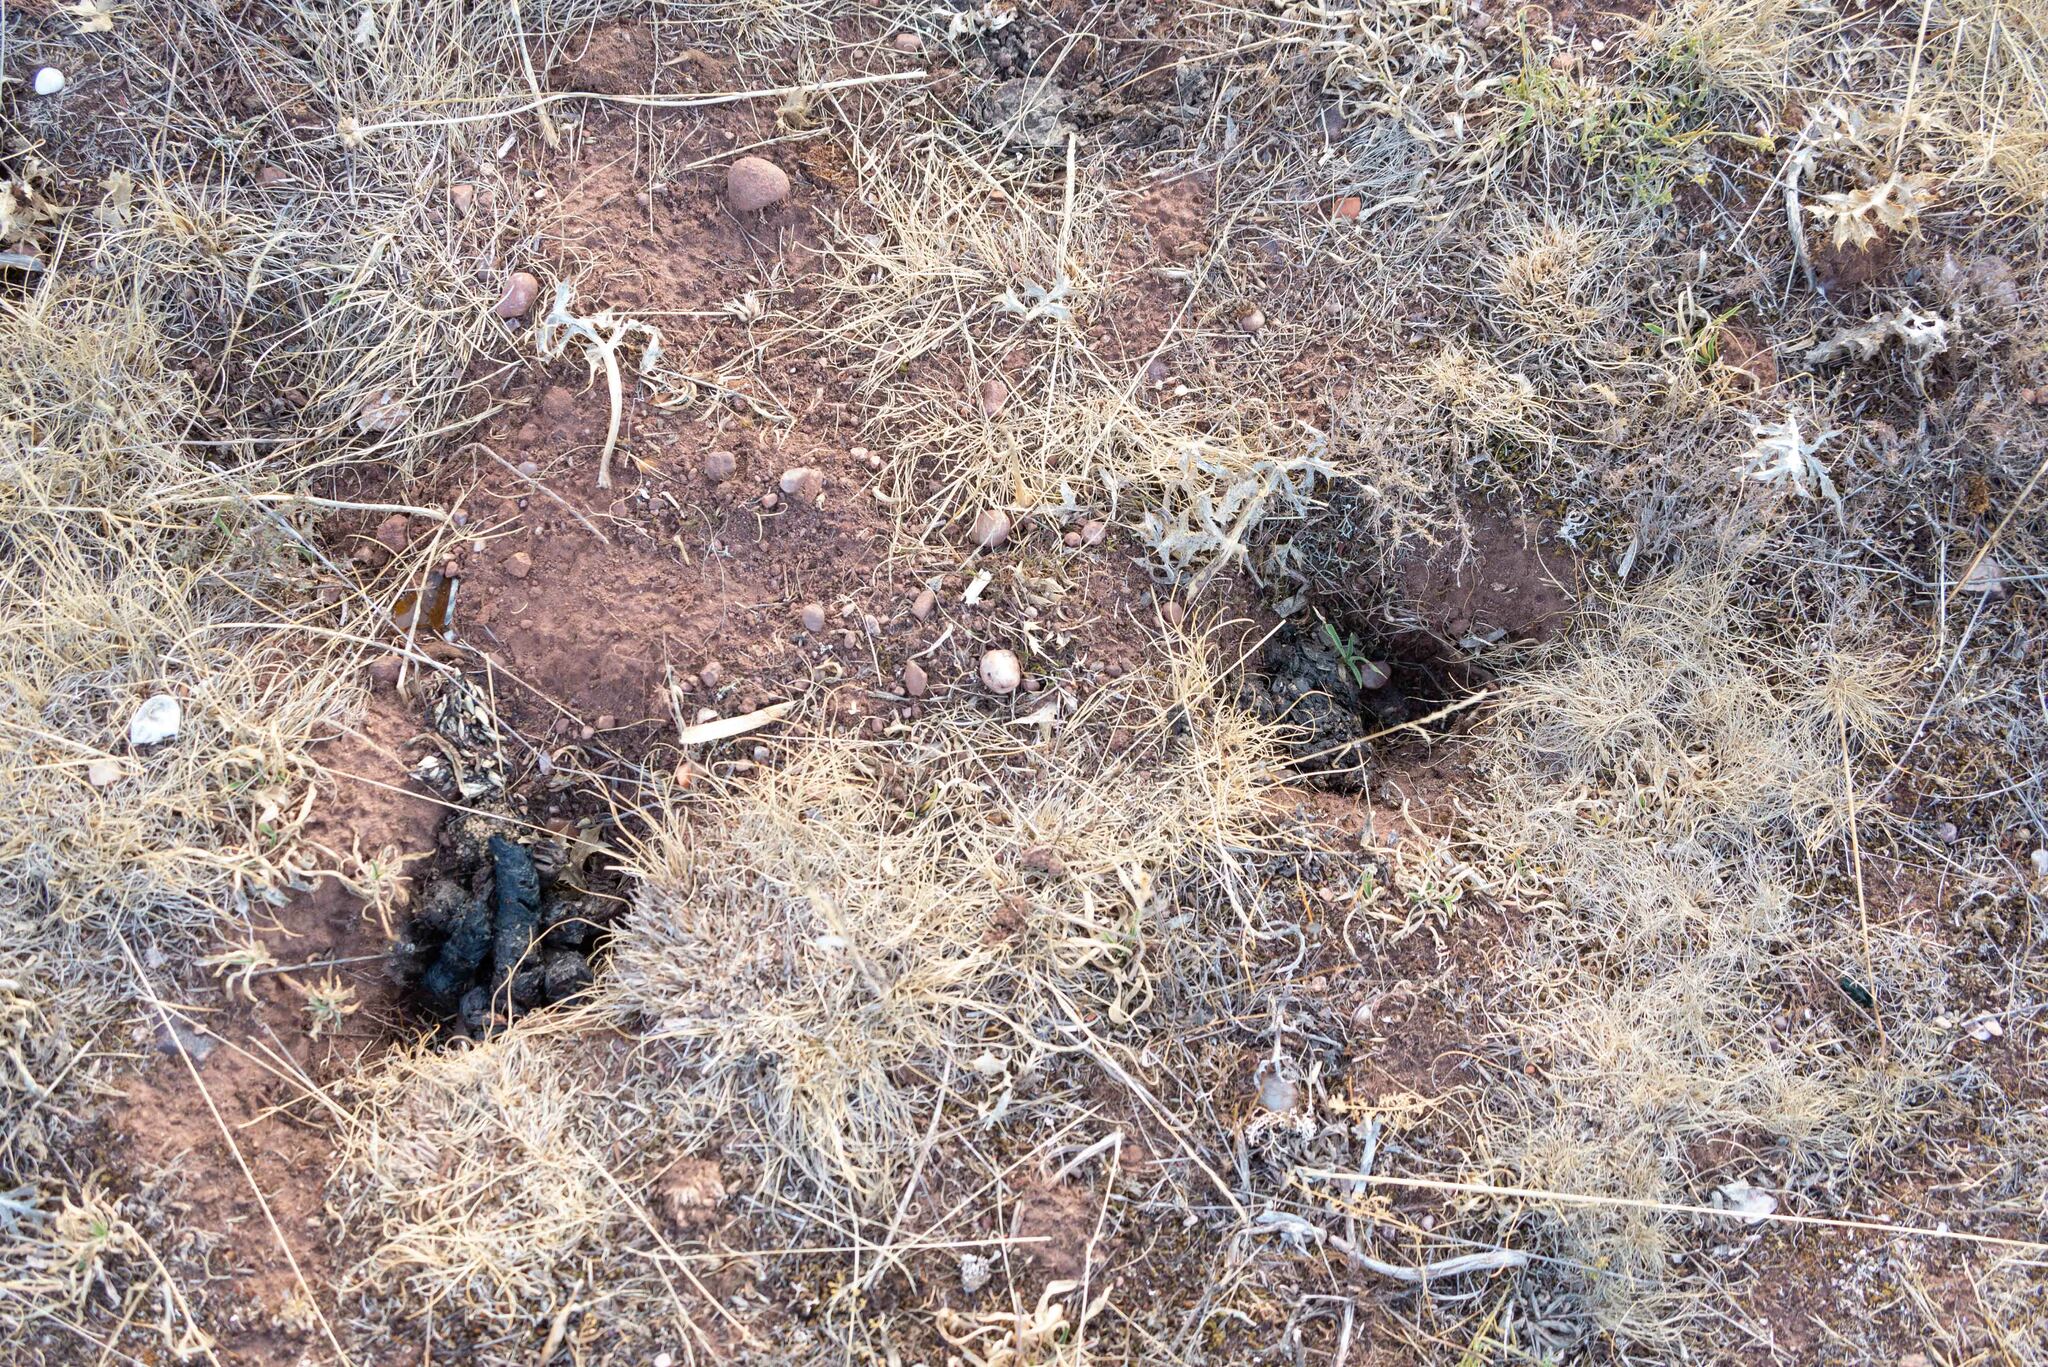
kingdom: Animalia
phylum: Chordata
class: Mammalia
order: Carnivora
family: Mustelidae
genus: Meles
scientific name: Meles meles
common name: Eurasian badger
